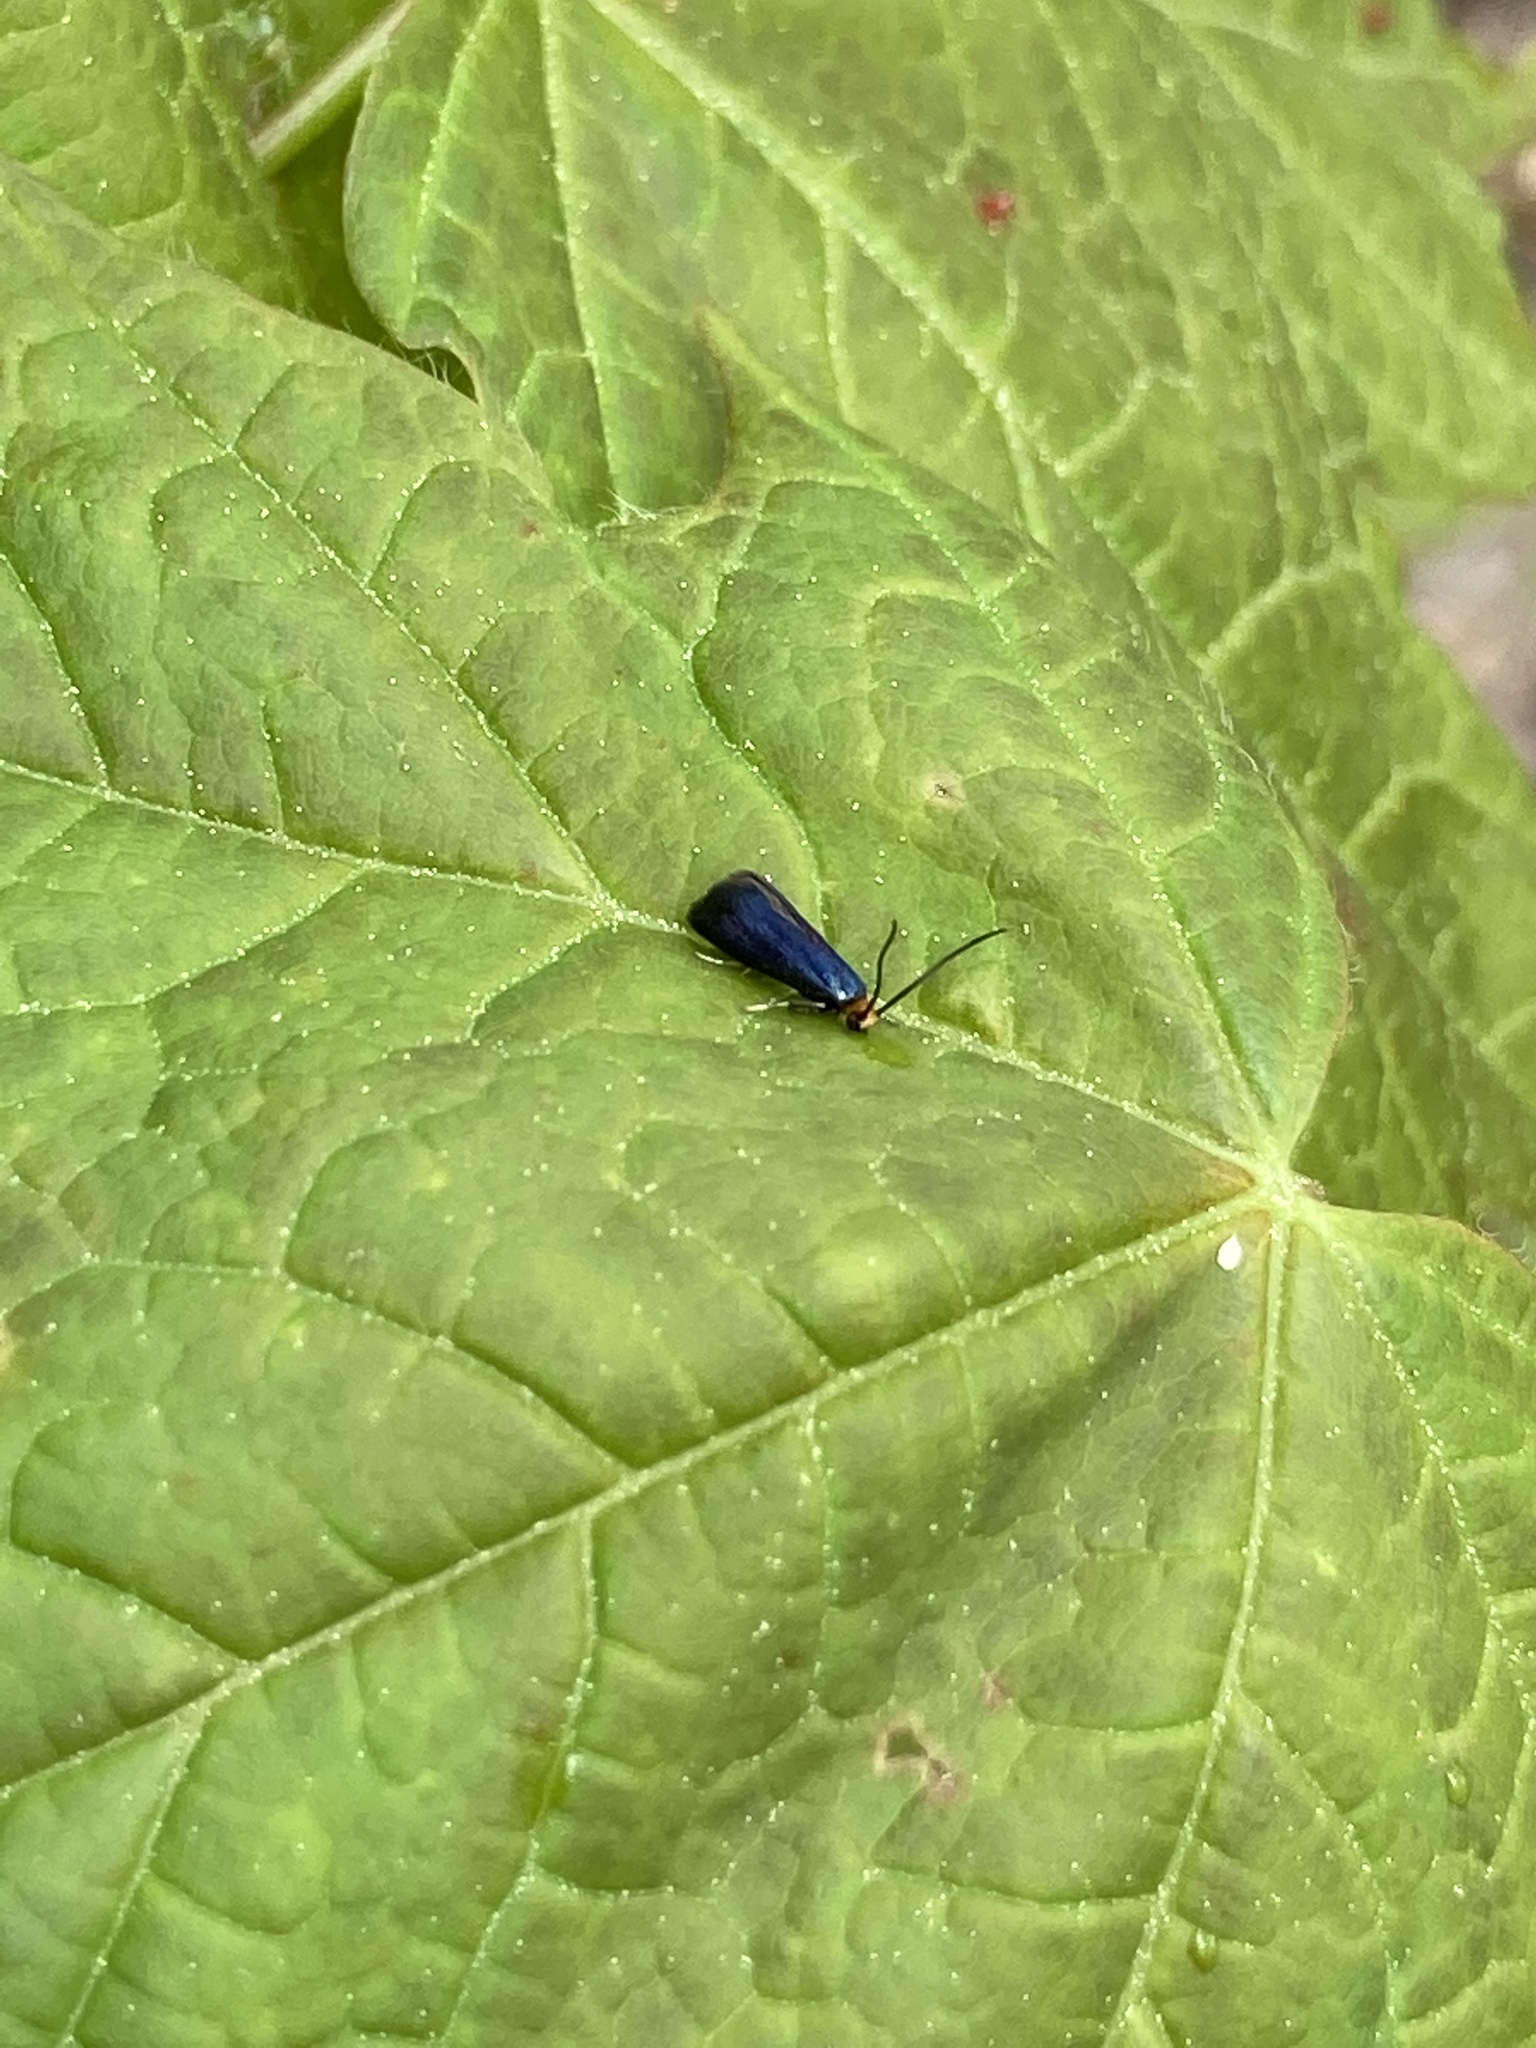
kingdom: Animalia
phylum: Arthropoda
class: Insecta
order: Lepidoptera
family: Incurvariidae
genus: Paraclemensia
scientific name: Paraclemensia acerifoliella
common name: Maple leafcutter
